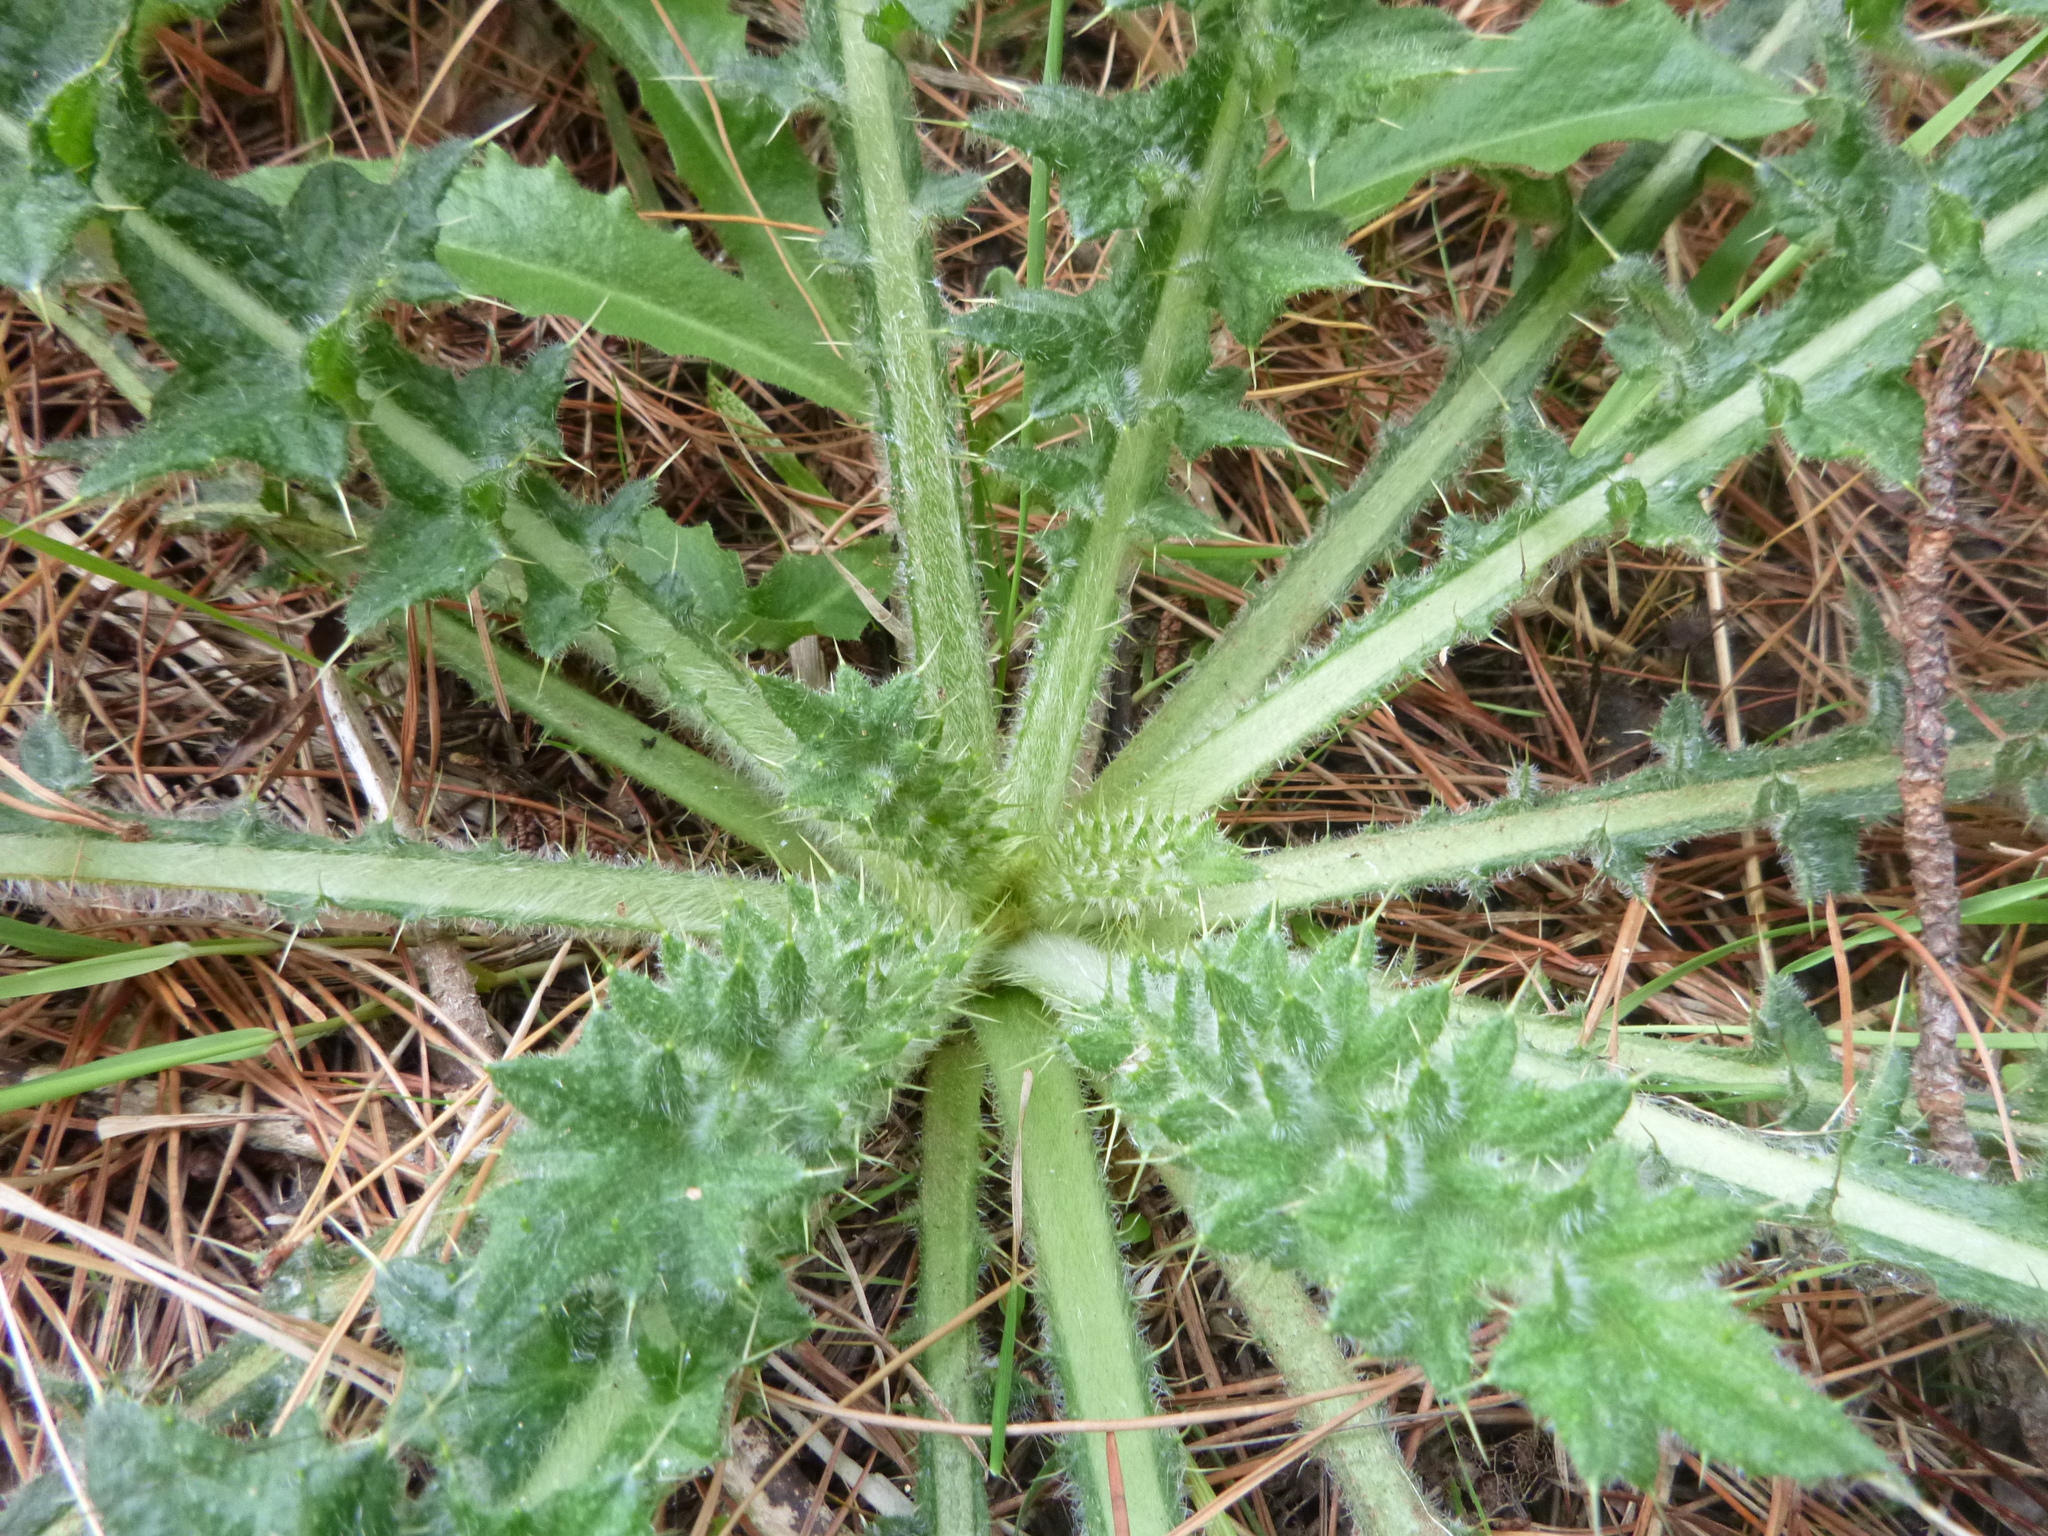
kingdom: Plantae
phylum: Tracheophyta
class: Magnoliopsida
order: Asterales
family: Asteraceae
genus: Cirsium
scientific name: Cirsium vulgare
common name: Bull thistle
